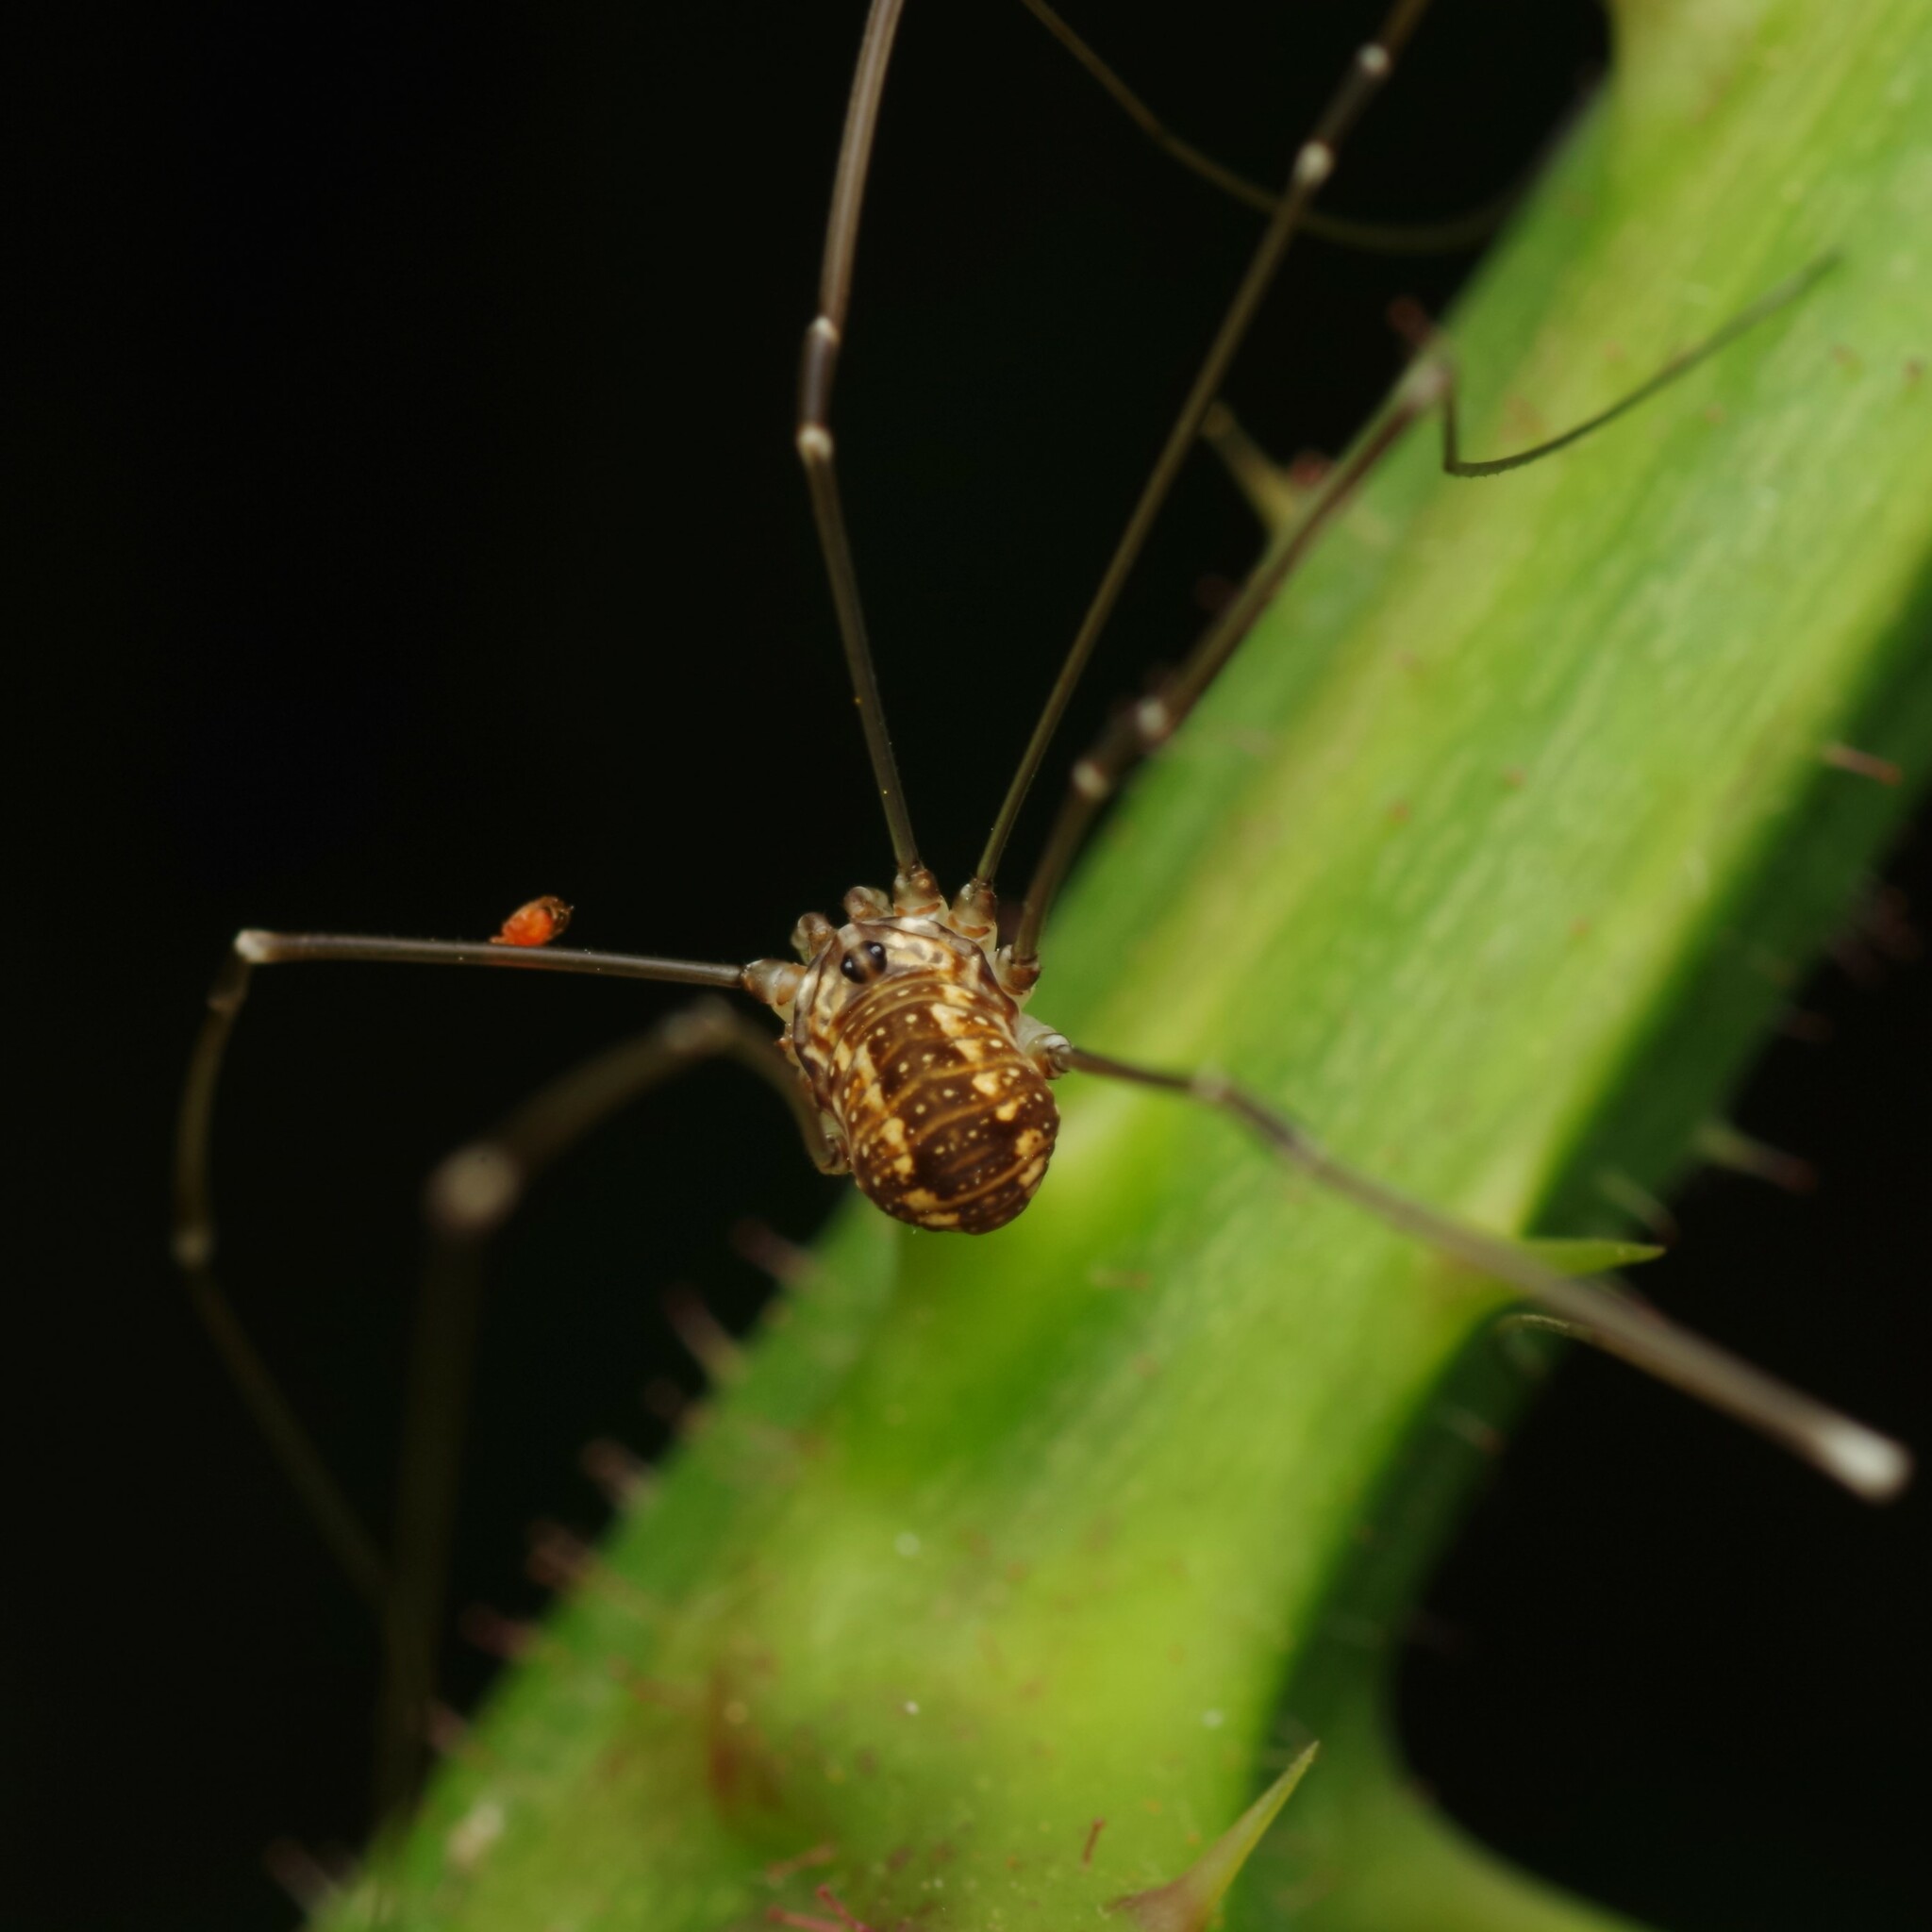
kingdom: Animalia
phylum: Arthropoda
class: Arachnida
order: Opiliones
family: Sclerosomatidae
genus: Leiobunum
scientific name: Leiobunum rotundum
